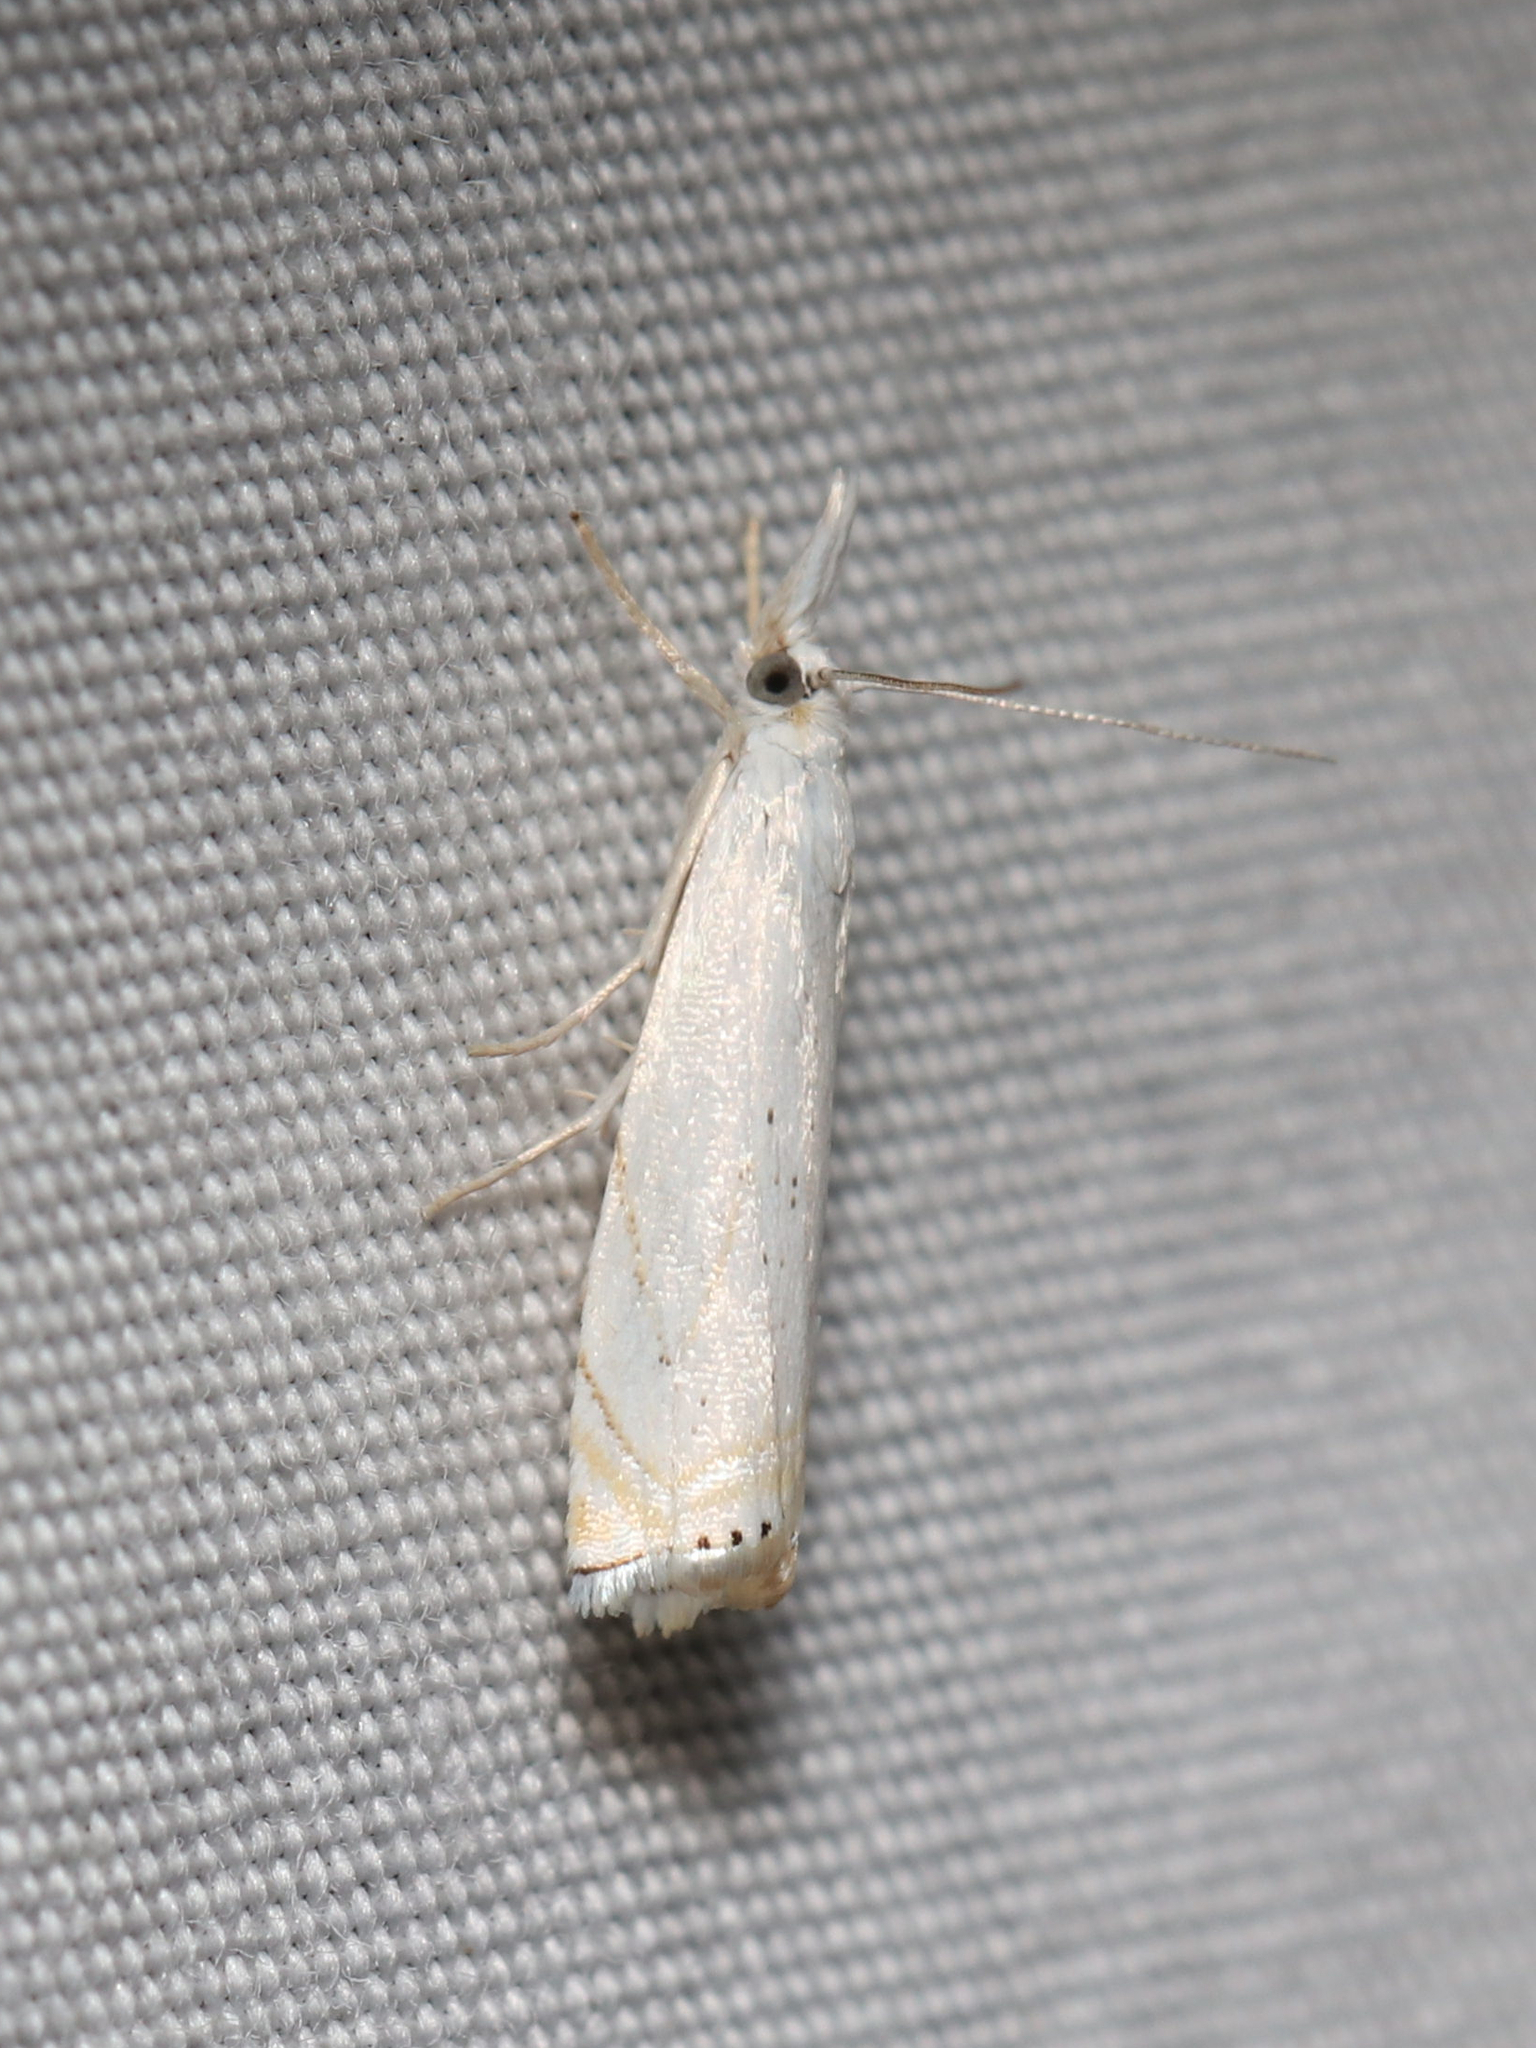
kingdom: Animalia
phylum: Arthropoda
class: Insecta
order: Lepidoptera
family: Crambidae
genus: Crambus
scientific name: Crambus albellus
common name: Small white grass-veneer
